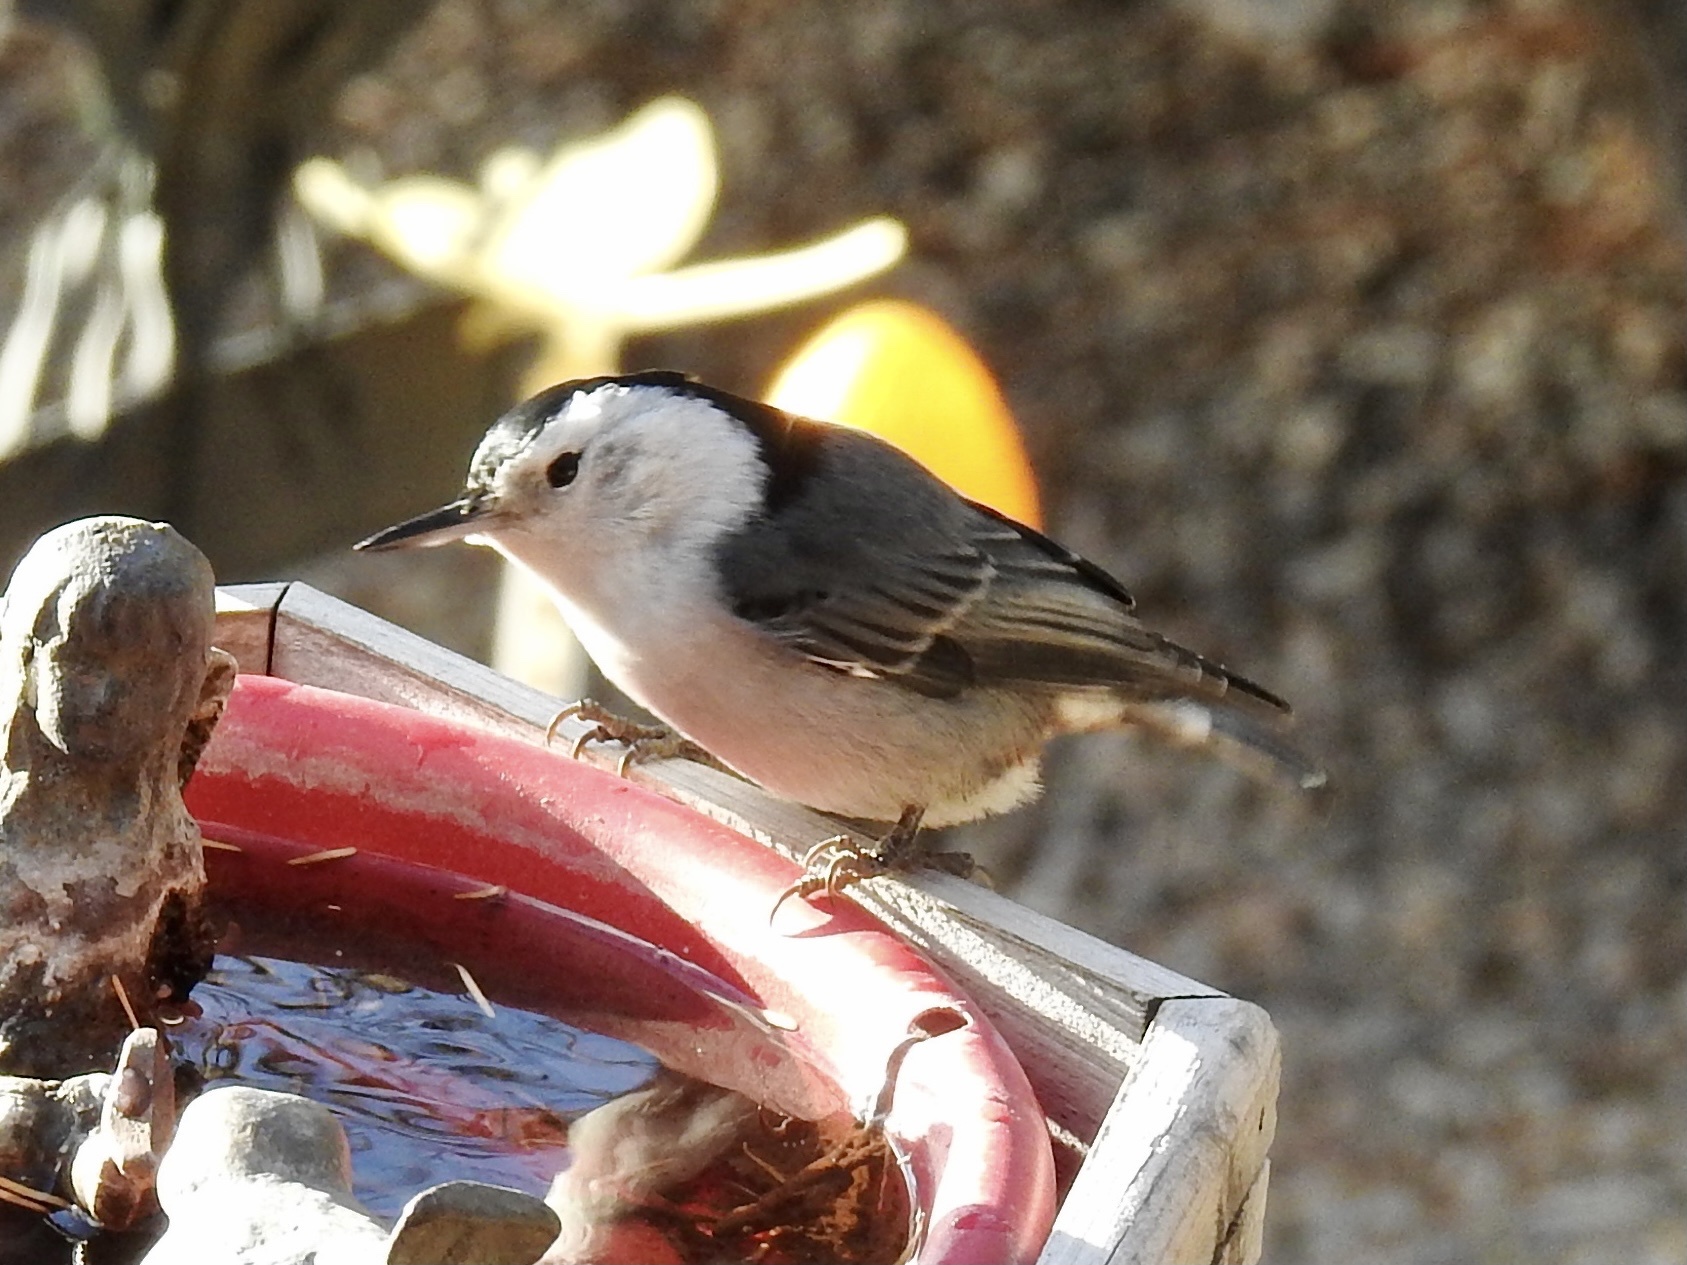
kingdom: Animalia
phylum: Chordata
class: Aves
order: Passeriformes
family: Sittidae
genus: Sitta
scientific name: Sitta carolinensis
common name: White-breasted nuthatch
